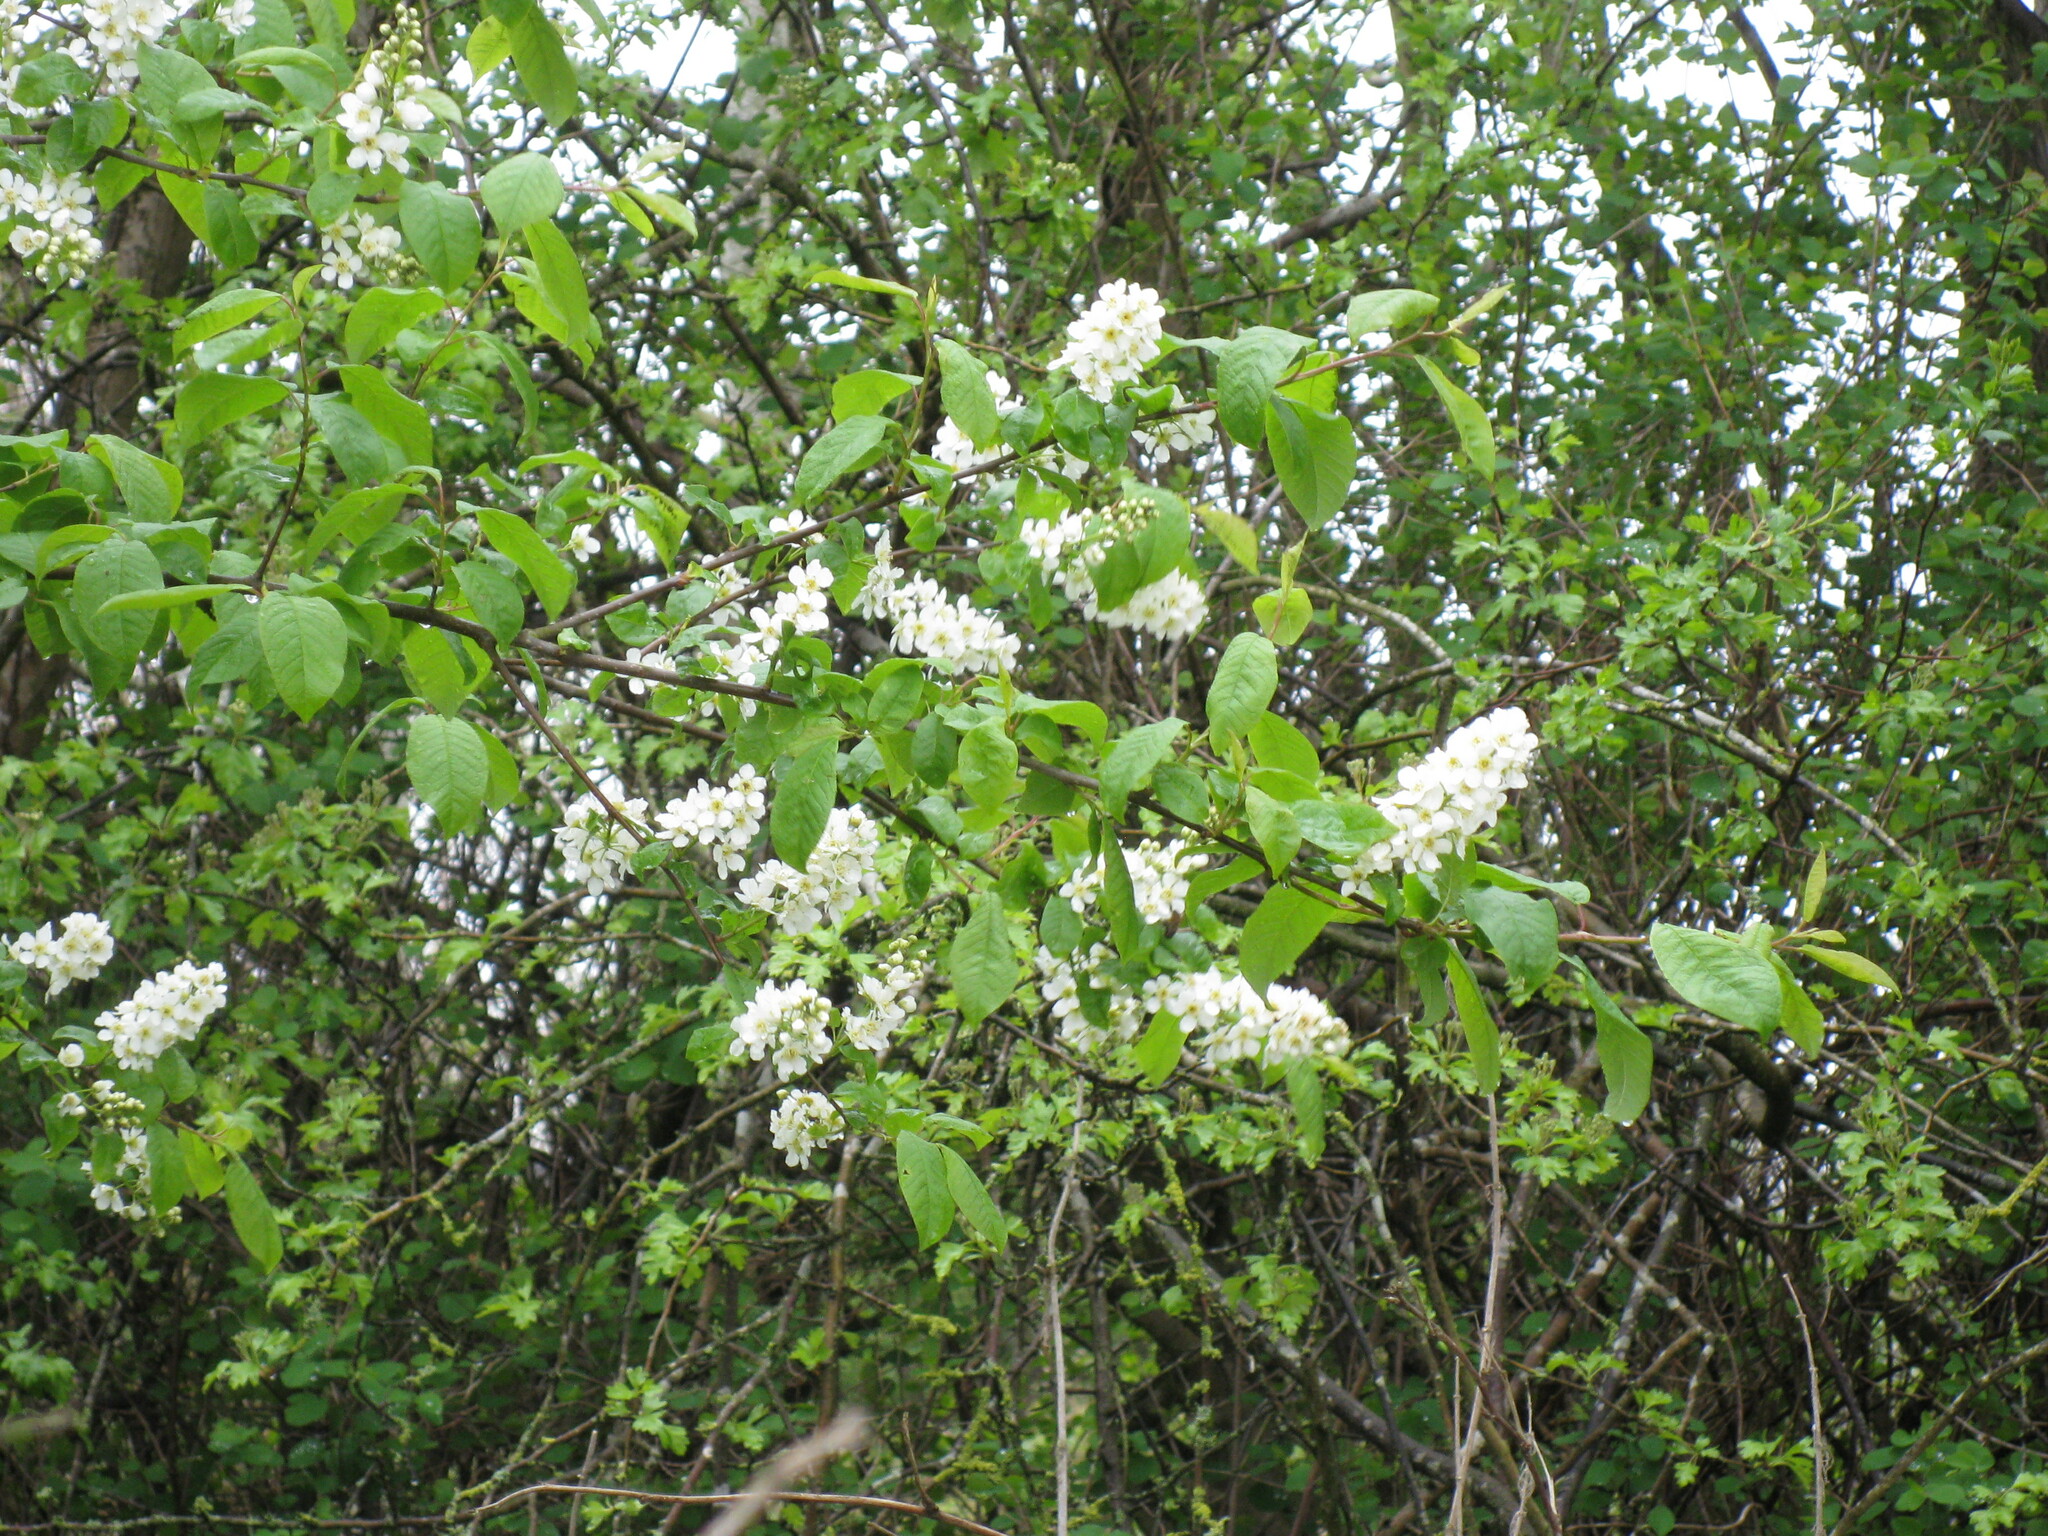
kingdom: Plantae
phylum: Tracheophyta
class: Magnoliopsida
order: Rosales
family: Rosaceae
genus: Prunus
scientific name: Prunus padus
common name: Bird cherry
